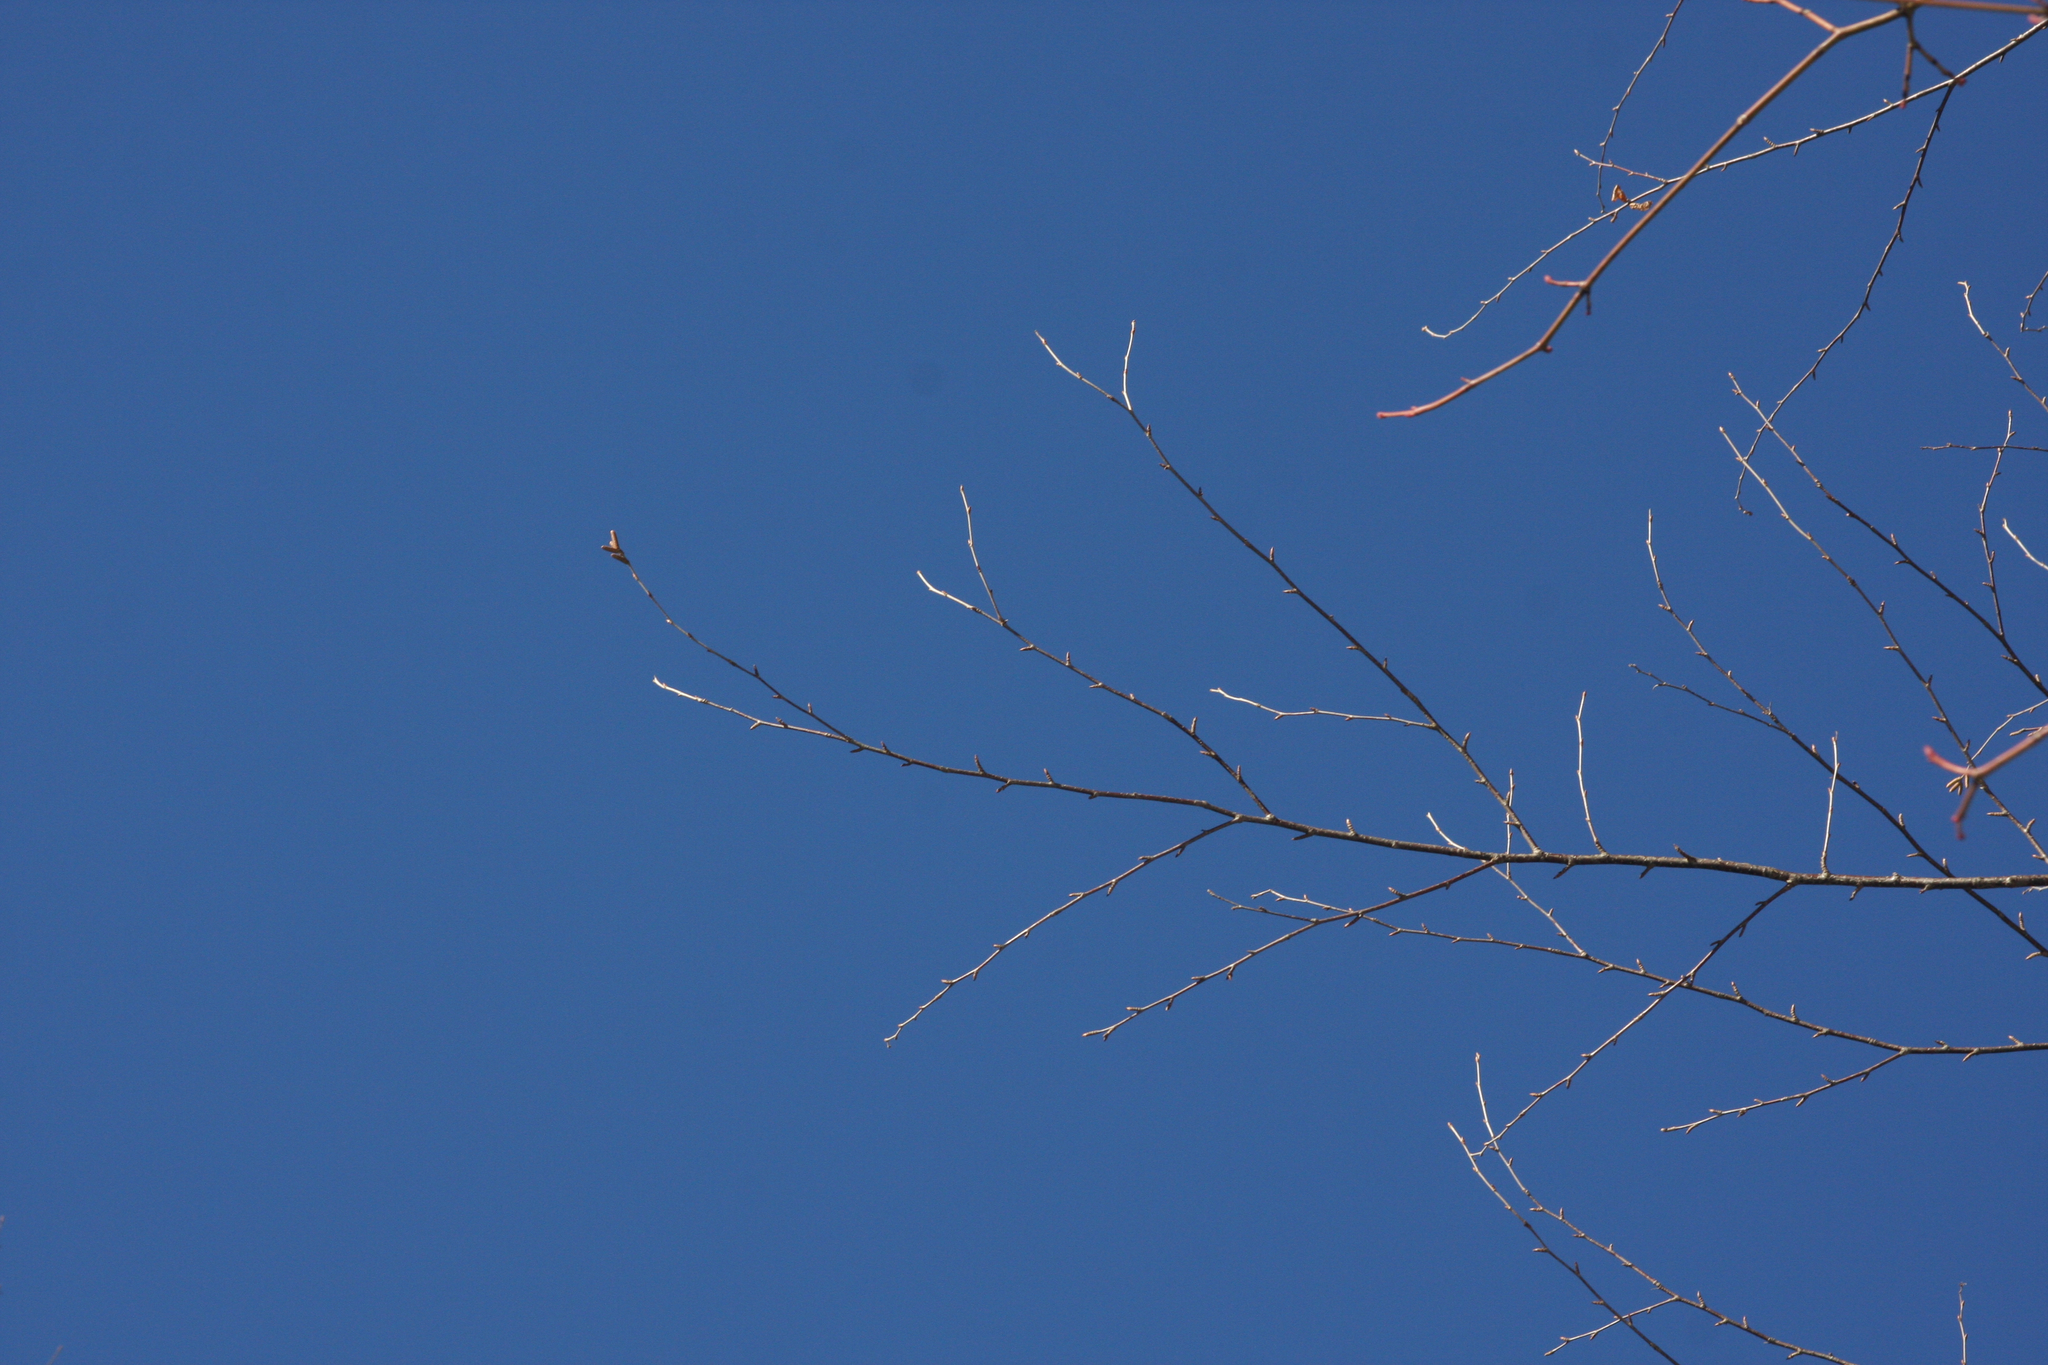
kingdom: Plantae
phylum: Tracheophyta
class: Magnoliopsida
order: Fagales
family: Betulaceae
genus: Betula
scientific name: Betula alleghaniensis
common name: Yellow birch
